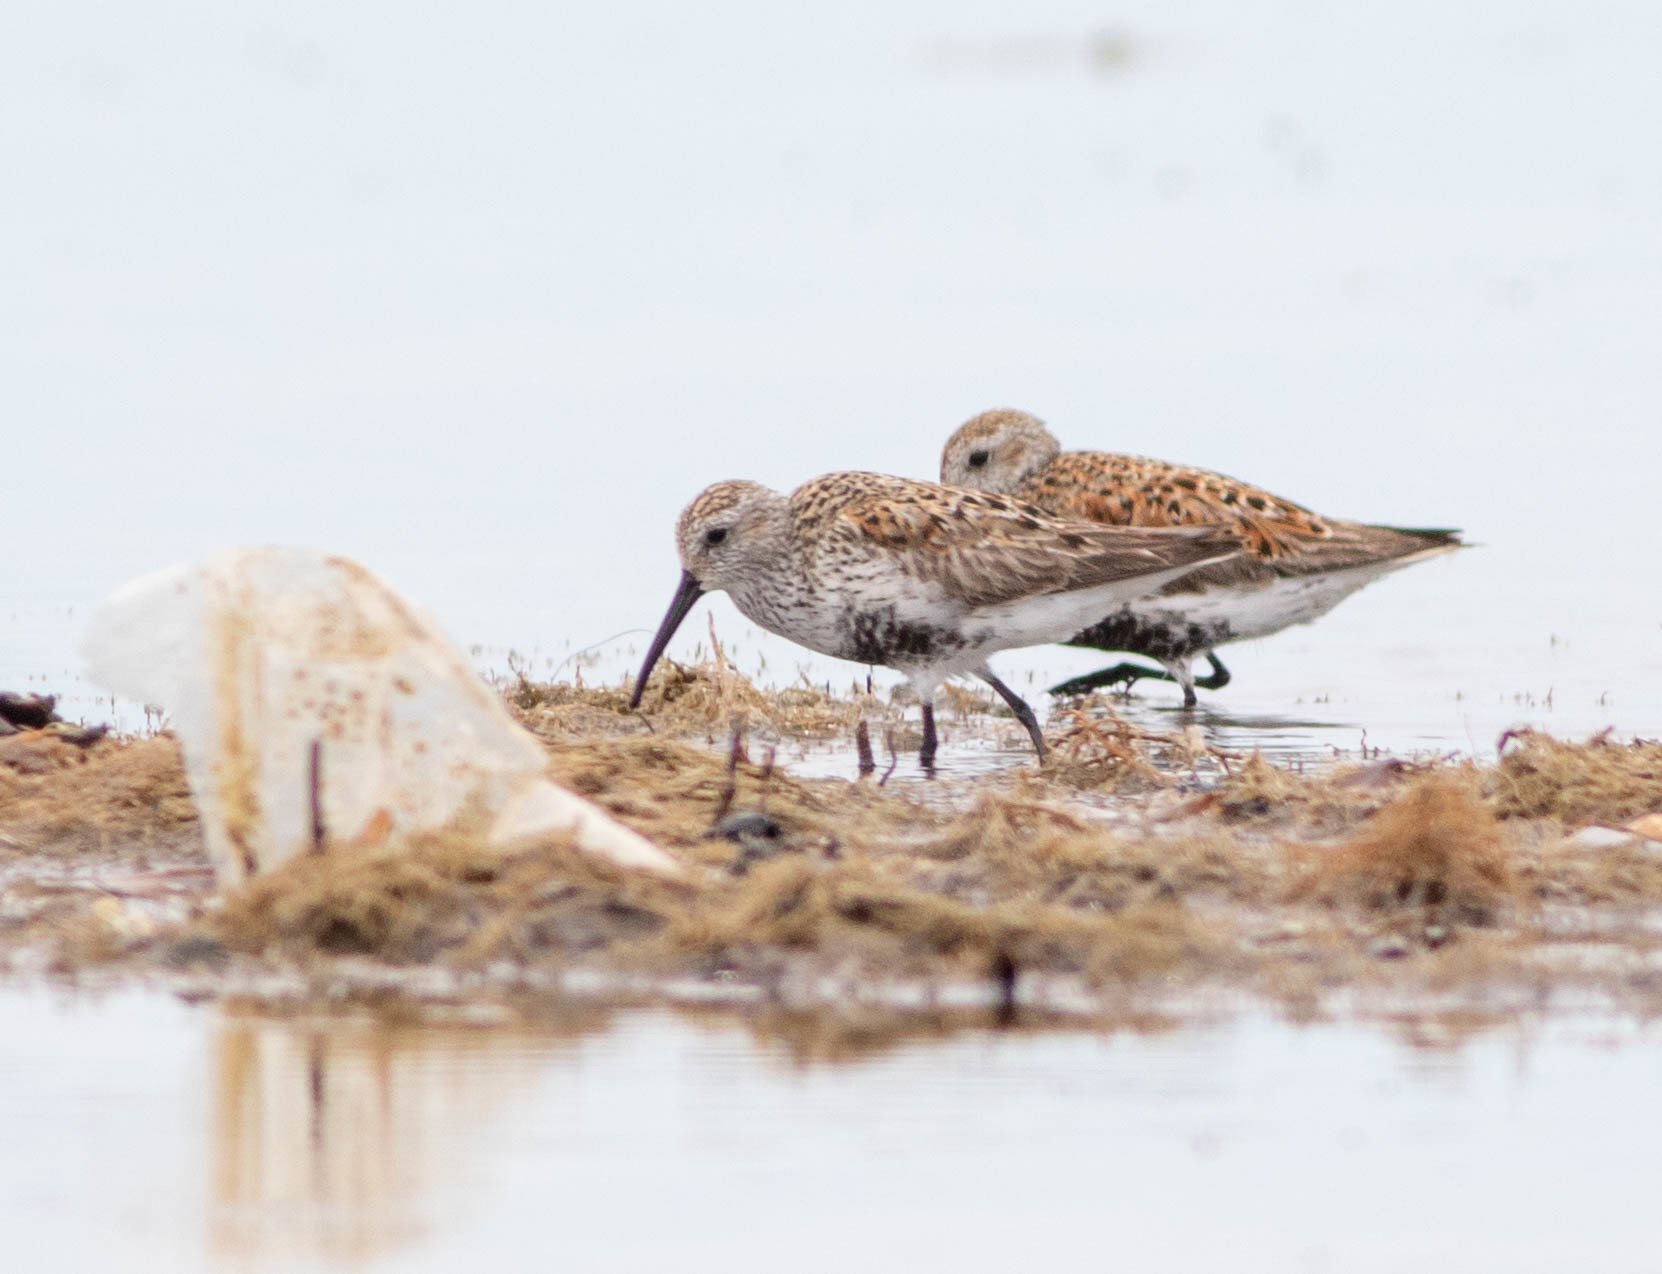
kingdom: Animalia
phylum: Chordata
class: Aves
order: Charadriiformes
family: Scolopacidae
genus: Calidris
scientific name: Calidris alpina
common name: Dunlin
